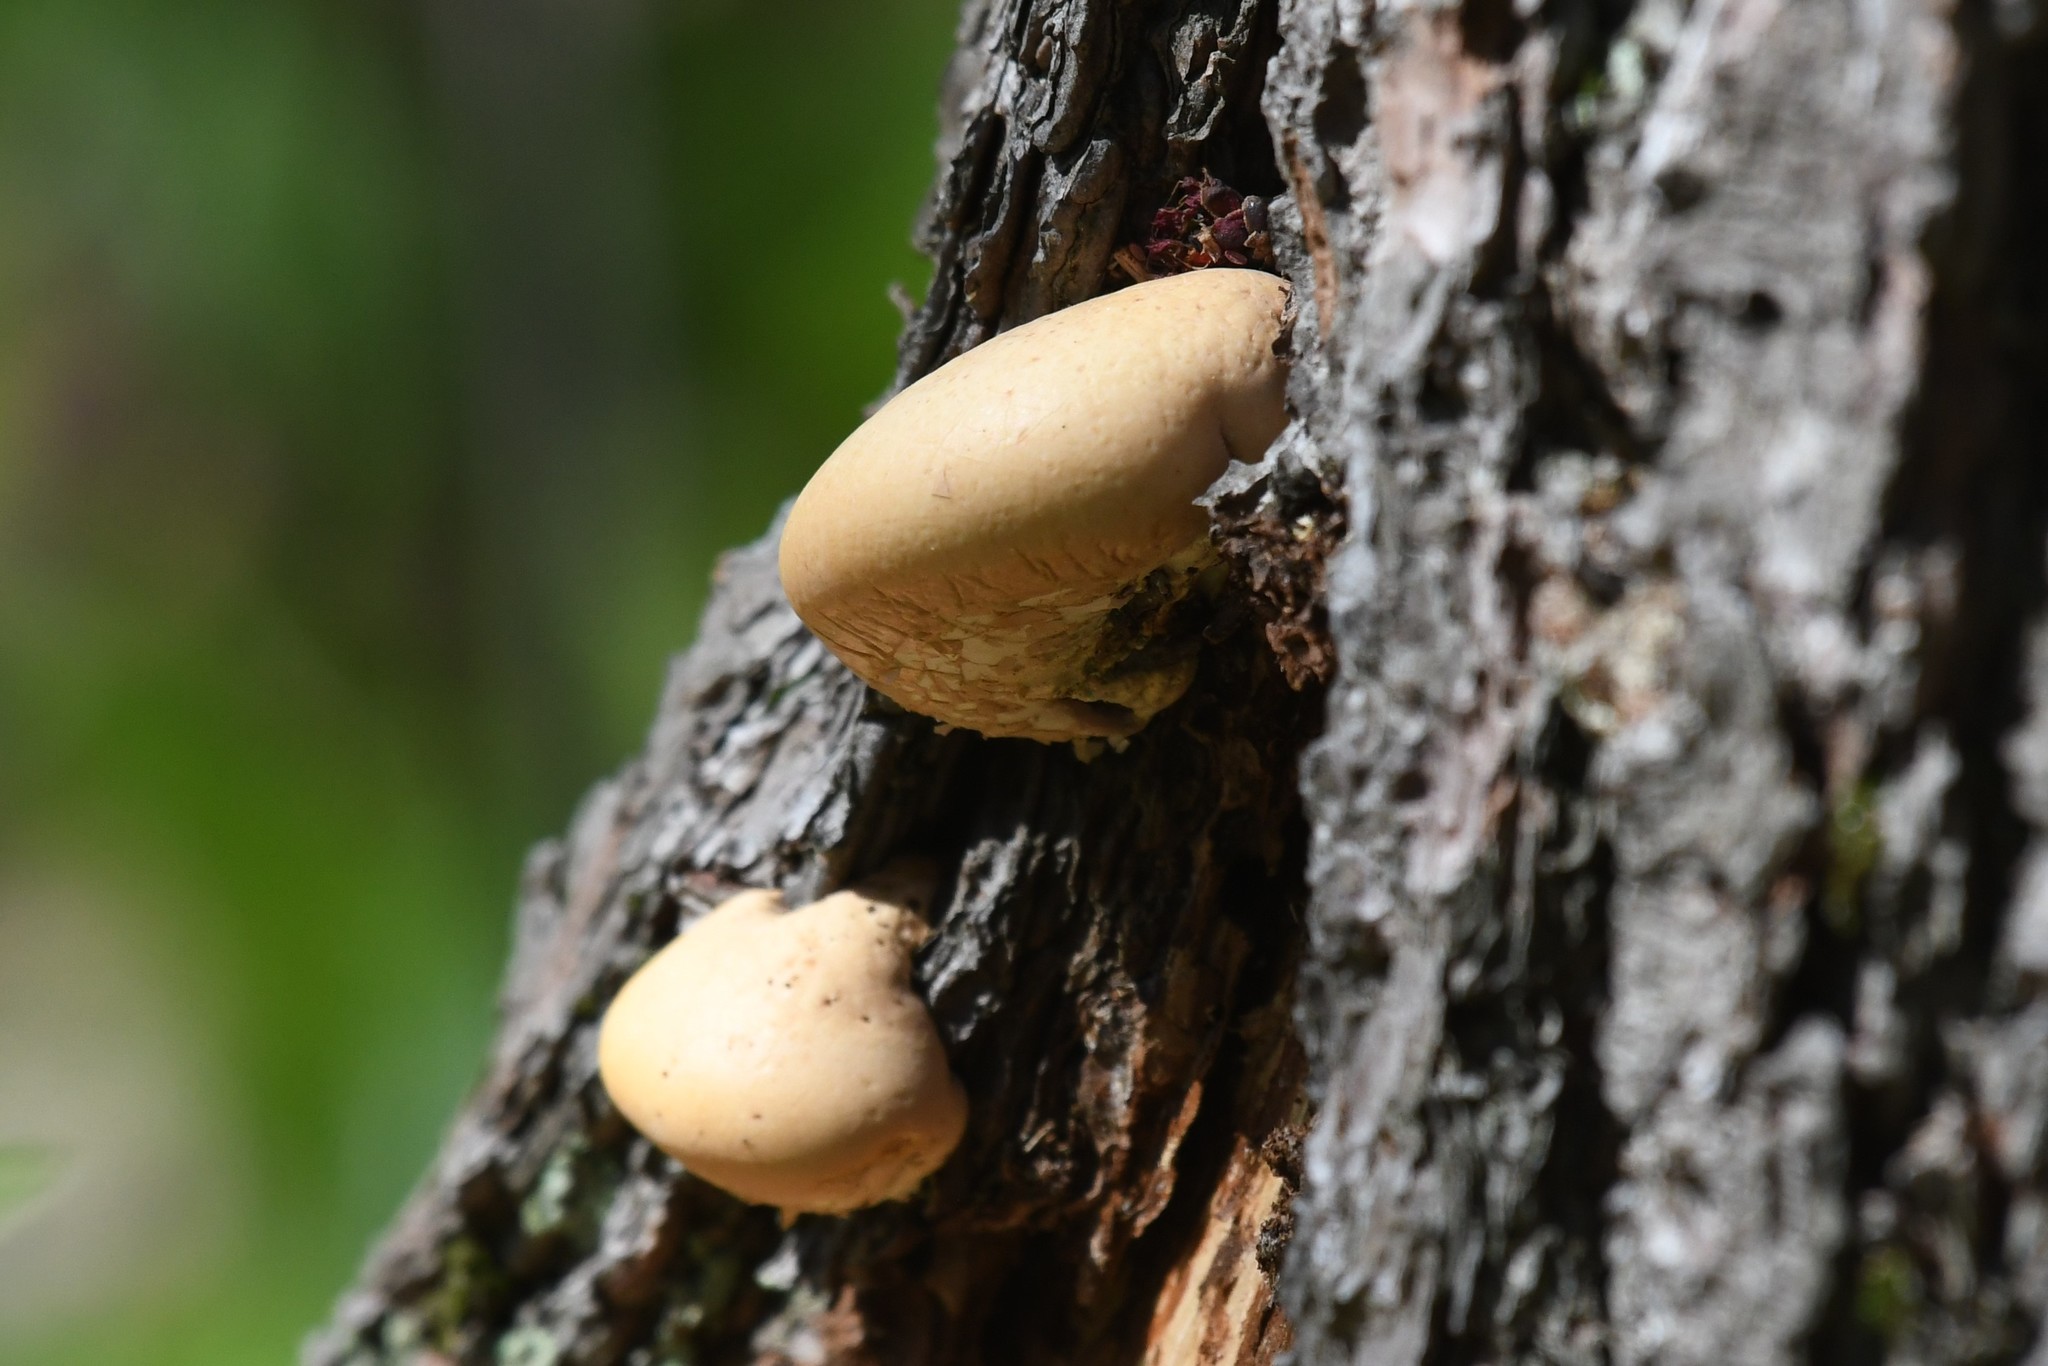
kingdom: Fungi
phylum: Basidiomycota
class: Agaricomycetes
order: Polyporales
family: Polyporaceae
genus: Cryptoporus
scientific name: Cryptoporus volvatus
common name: Veiled polypore
